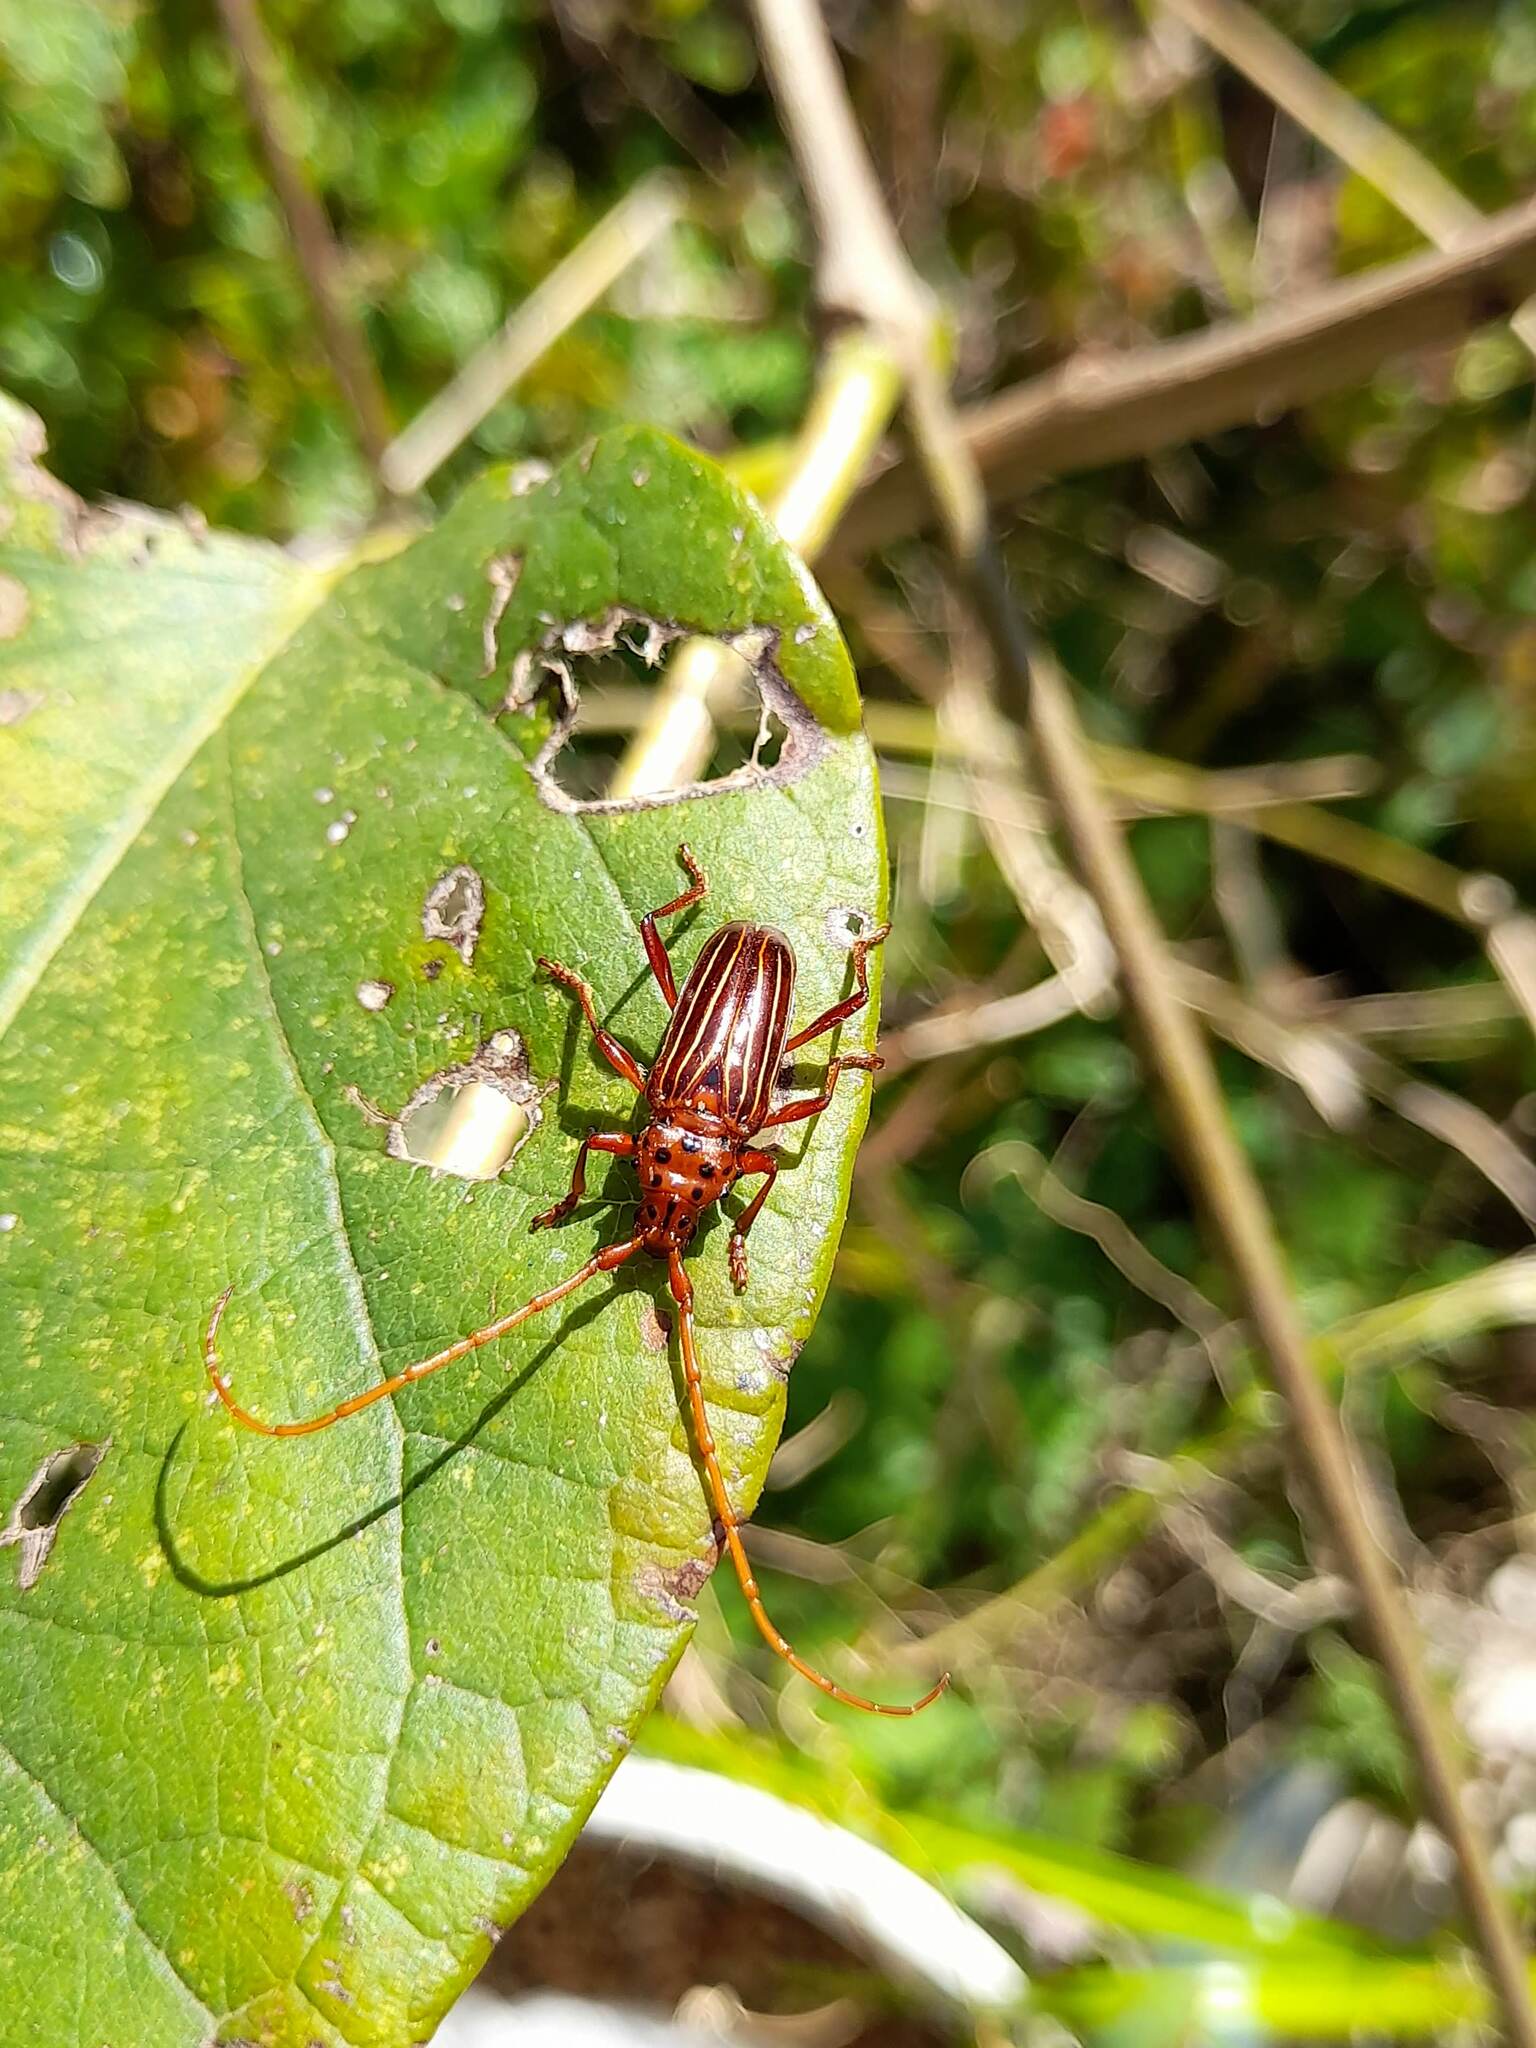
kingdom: Animalia
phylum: Arthropoda
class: Insecta
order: Coleoptera
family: Cerambycidae
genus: Chydarteres
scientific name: Chydarteres striatus
